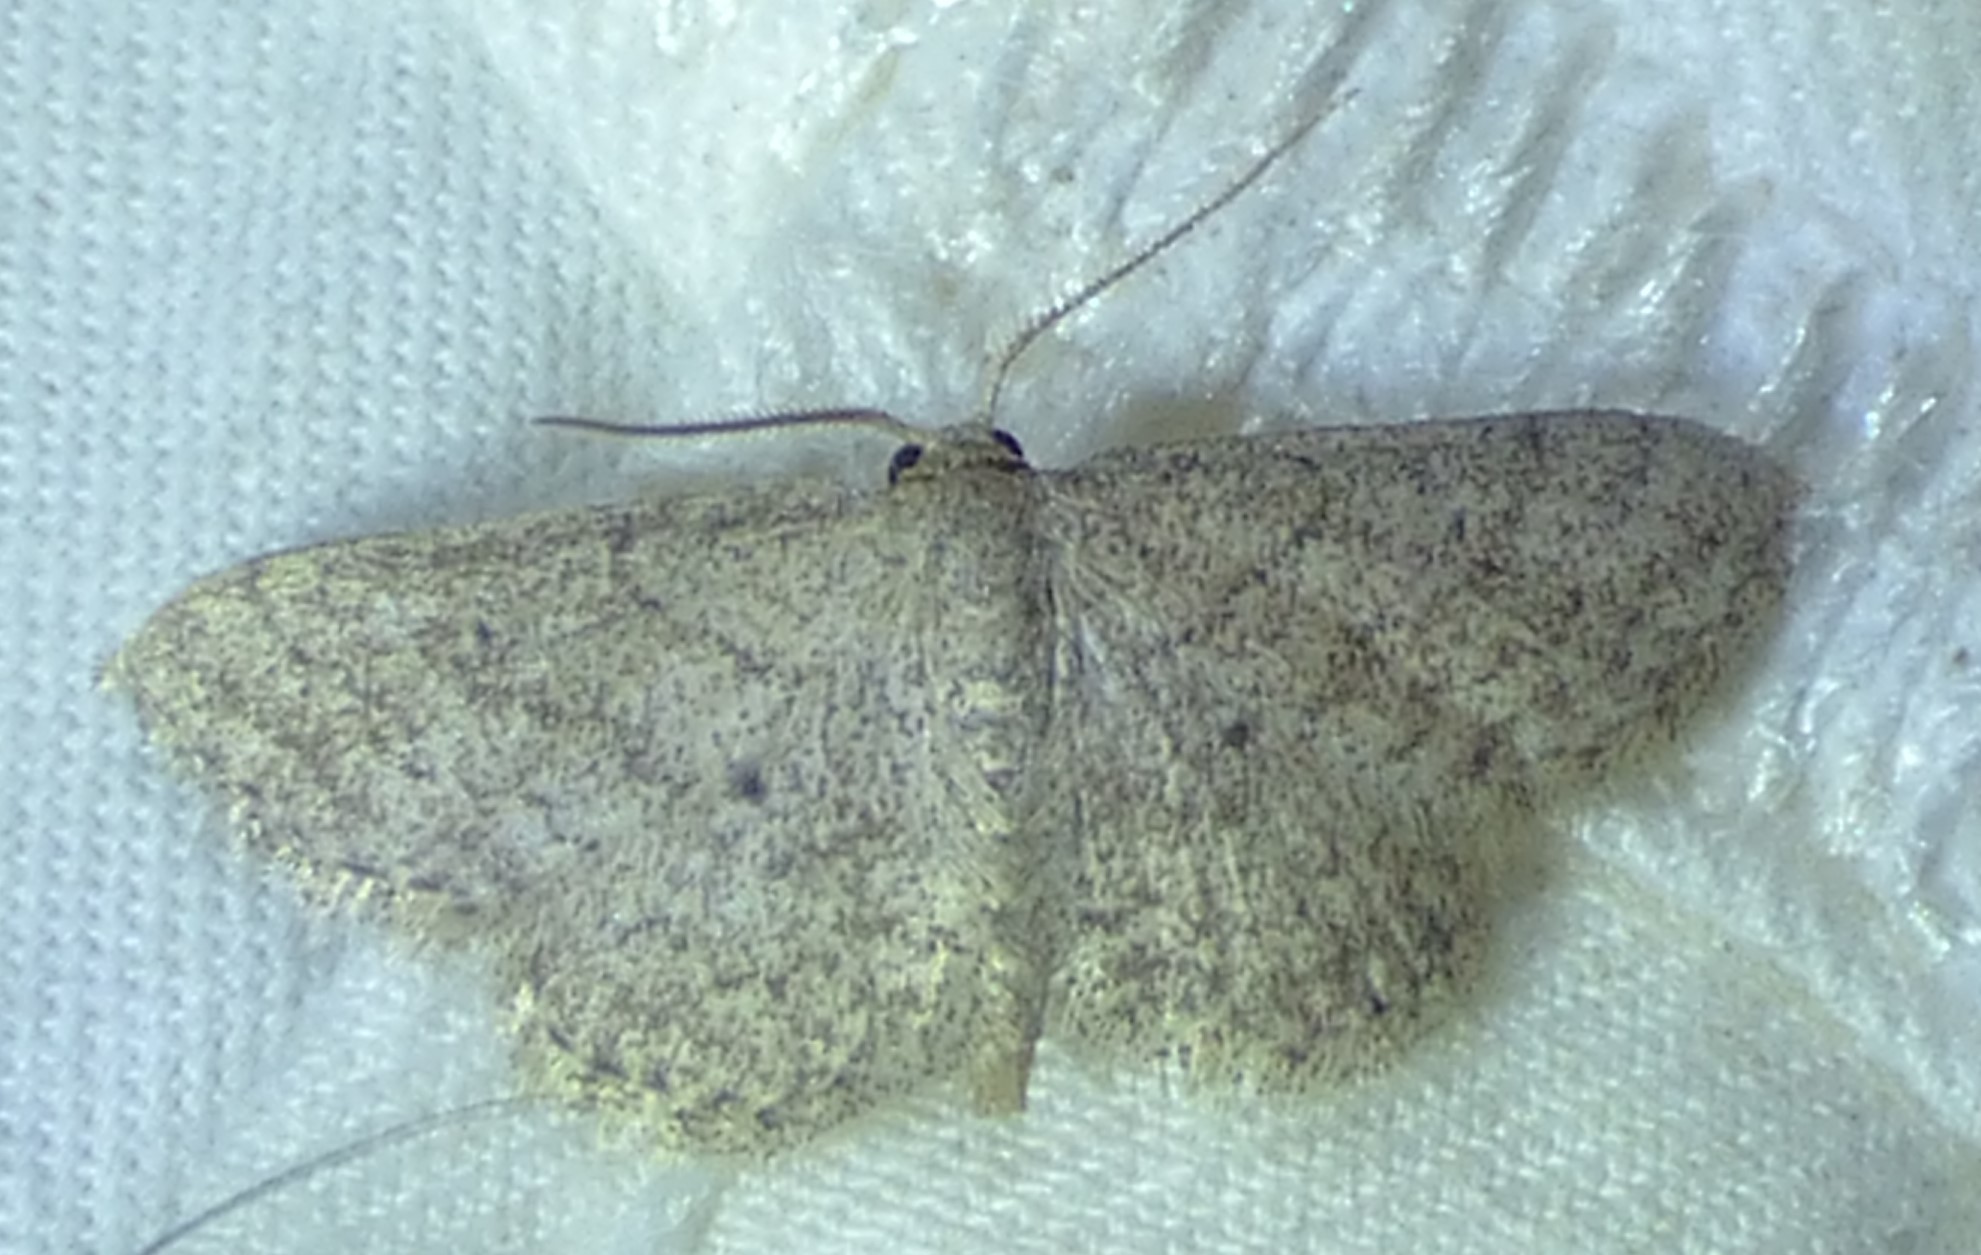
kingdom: Animalia
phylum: Arthropoda
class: Insecta
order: Lepidoptera
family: Geometridae
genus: Lobocleta
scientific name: Lobocleta ossularia
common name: Drab brown wave
